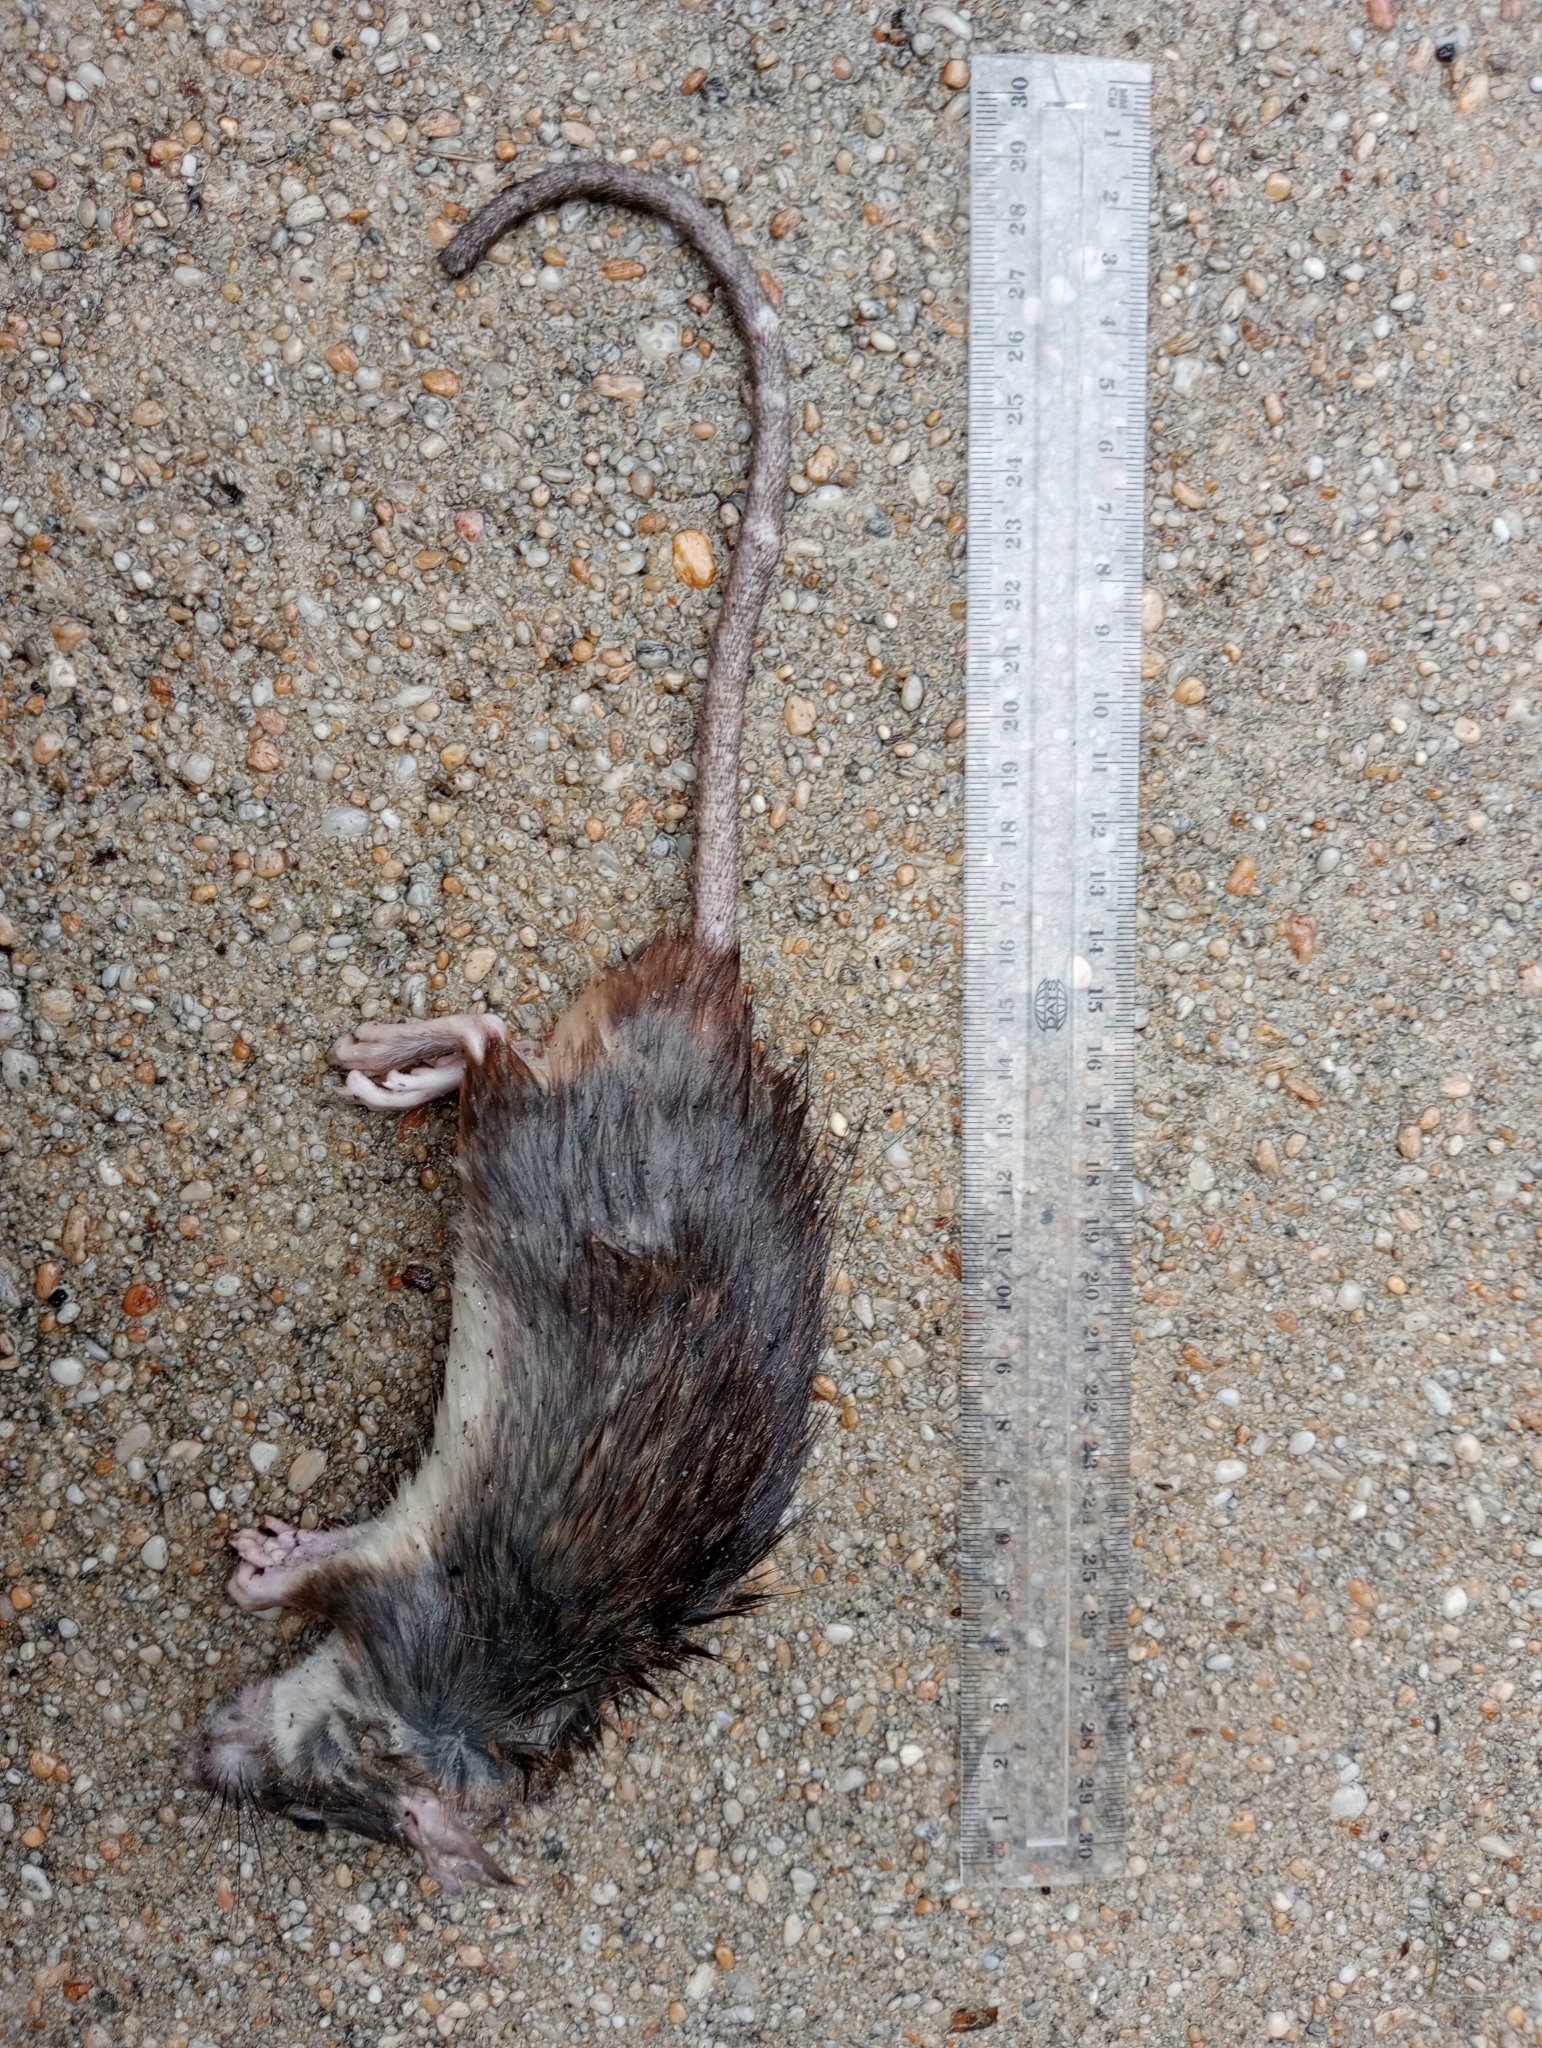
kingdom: Animalia
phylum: Chordata
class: Mammalia
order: Rodentia
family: Muridae
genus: Rattus
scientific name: Rattus rattus
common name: Black rat
